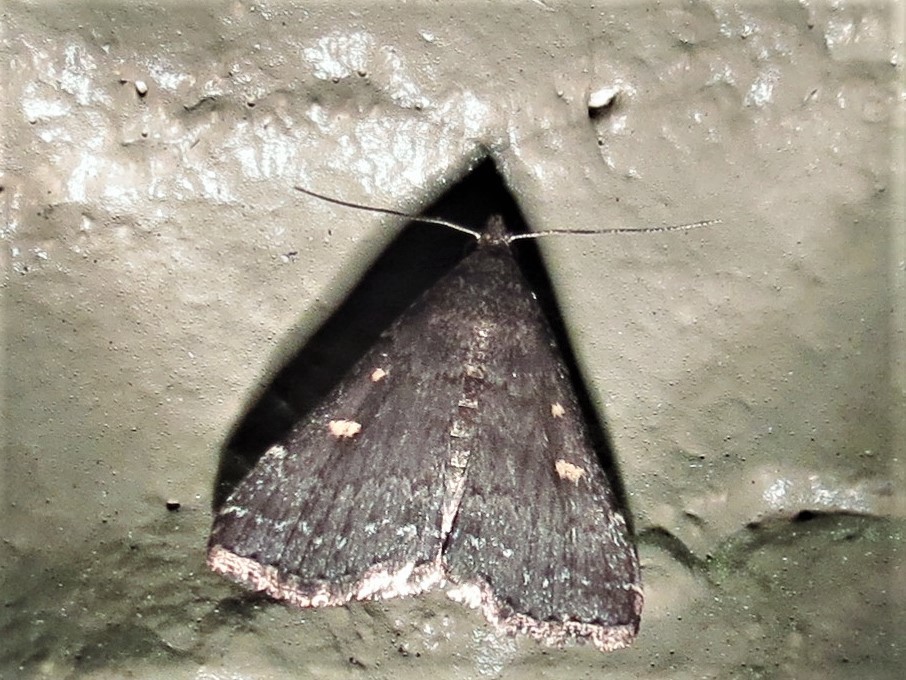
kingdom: Animalia
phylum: Arthropoda
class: Insecta
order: Lepidoptera
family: Erebidae
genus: Tetanolita
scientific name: Tetanolita mynesalis
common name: Smoky tetanolita moth
